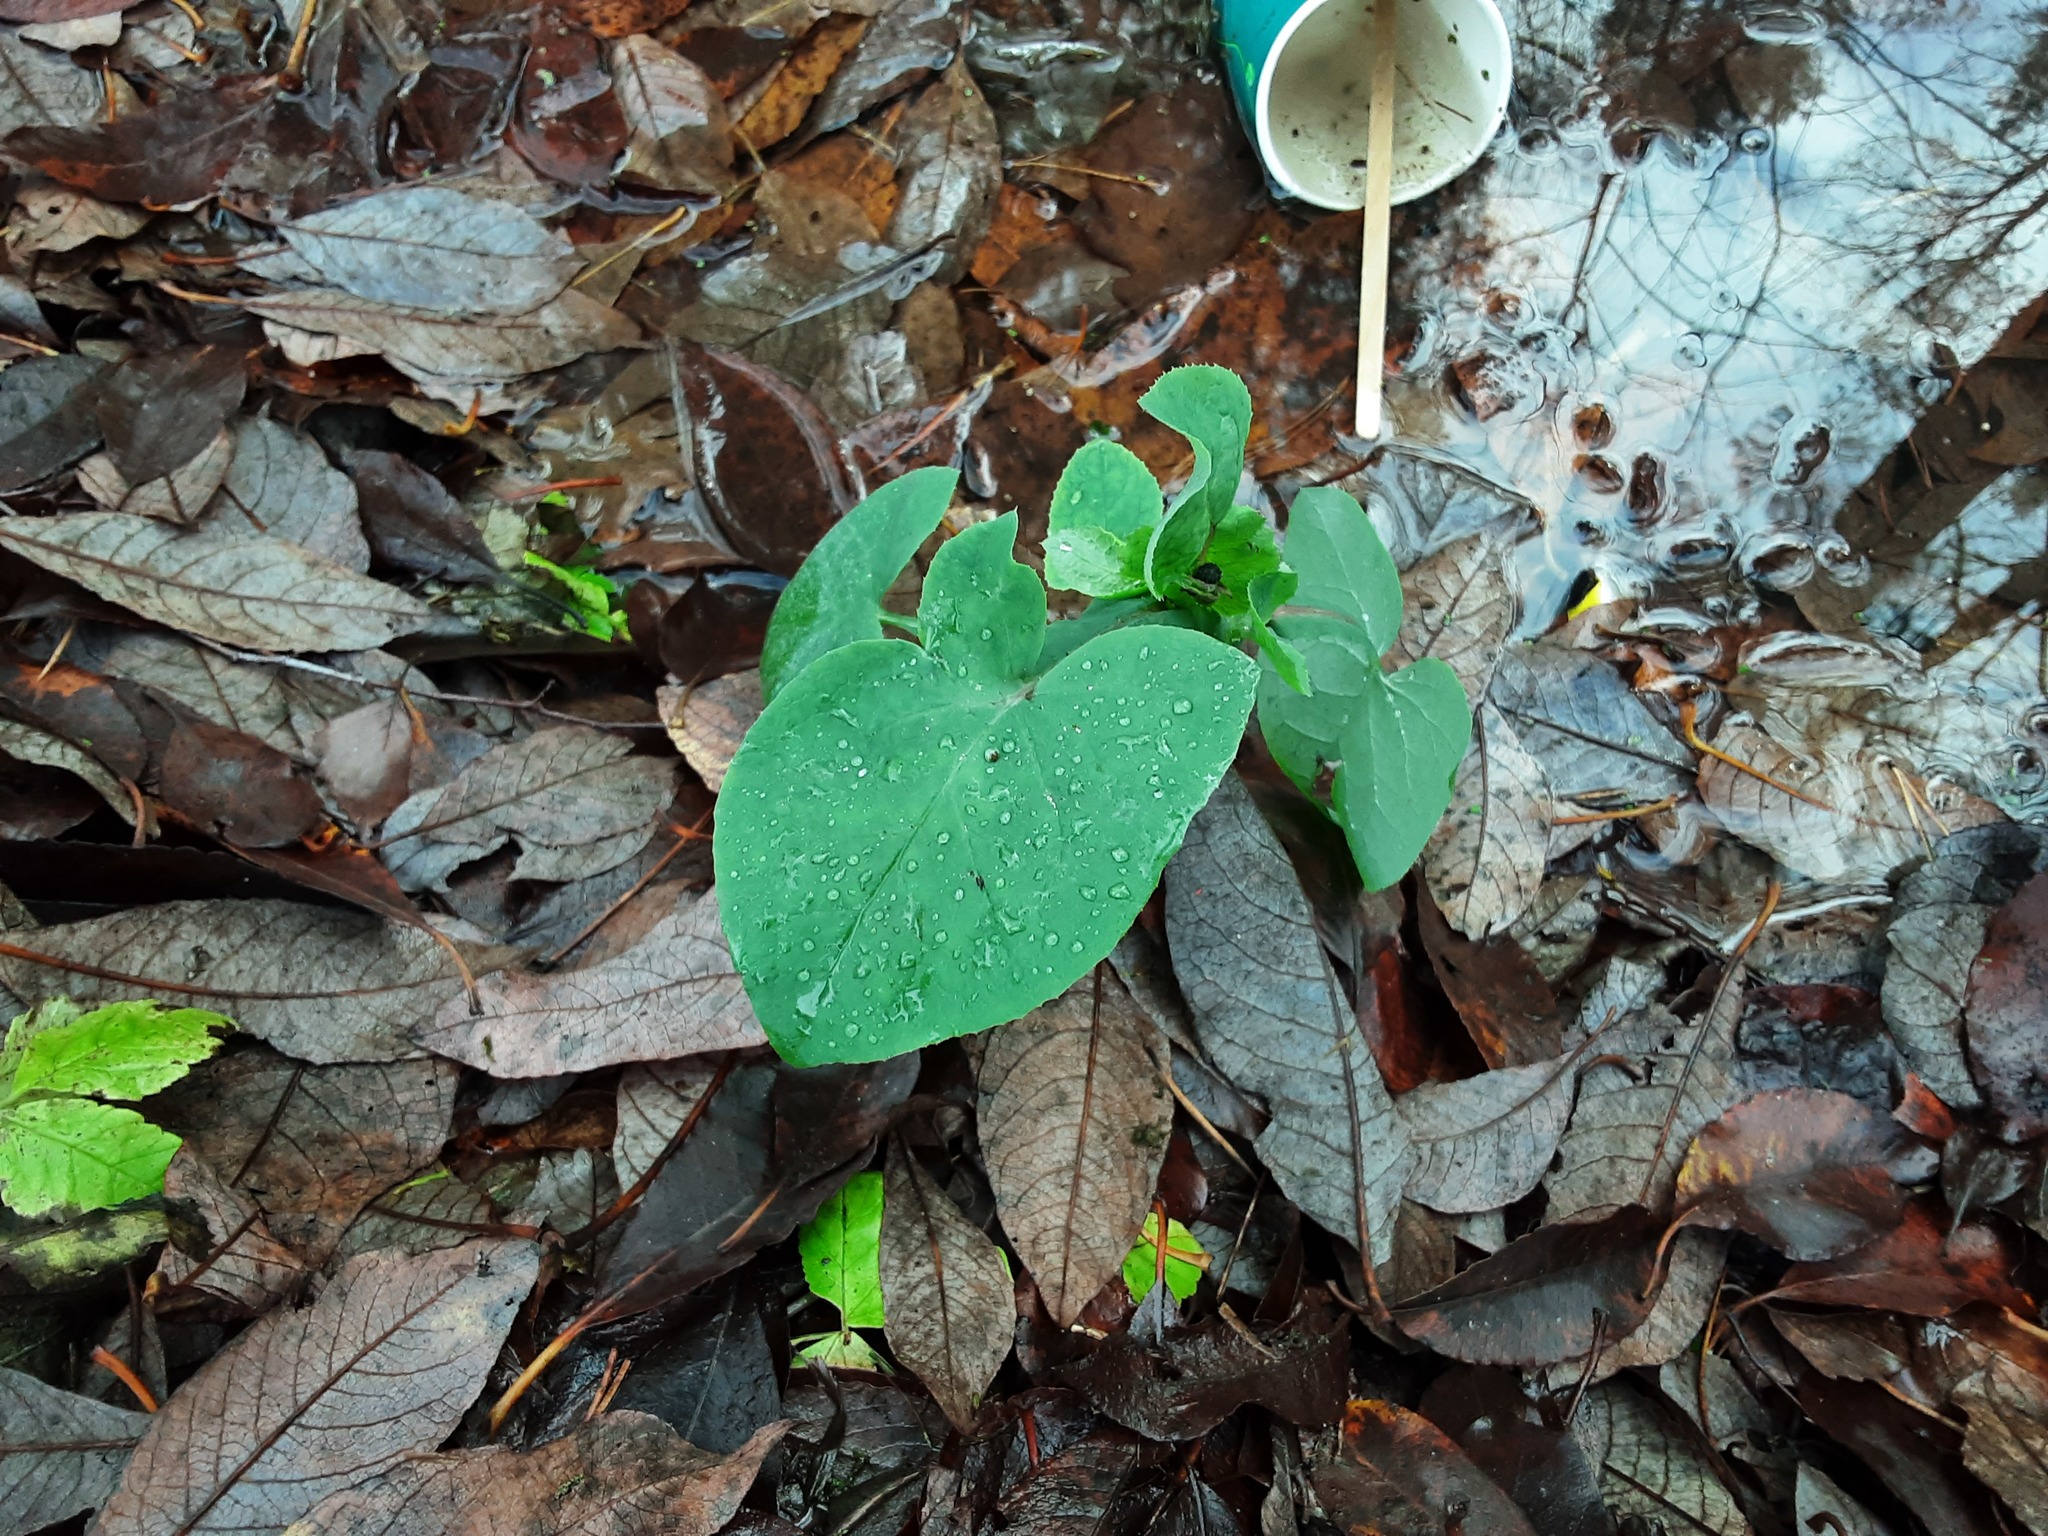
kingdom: Plantae
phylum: Tracheophyta
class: Magnoliopsida
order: Asterales
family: Asteraceae
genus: Sonchus
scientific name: Sonchus oleraceus
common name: Common sowthistle
